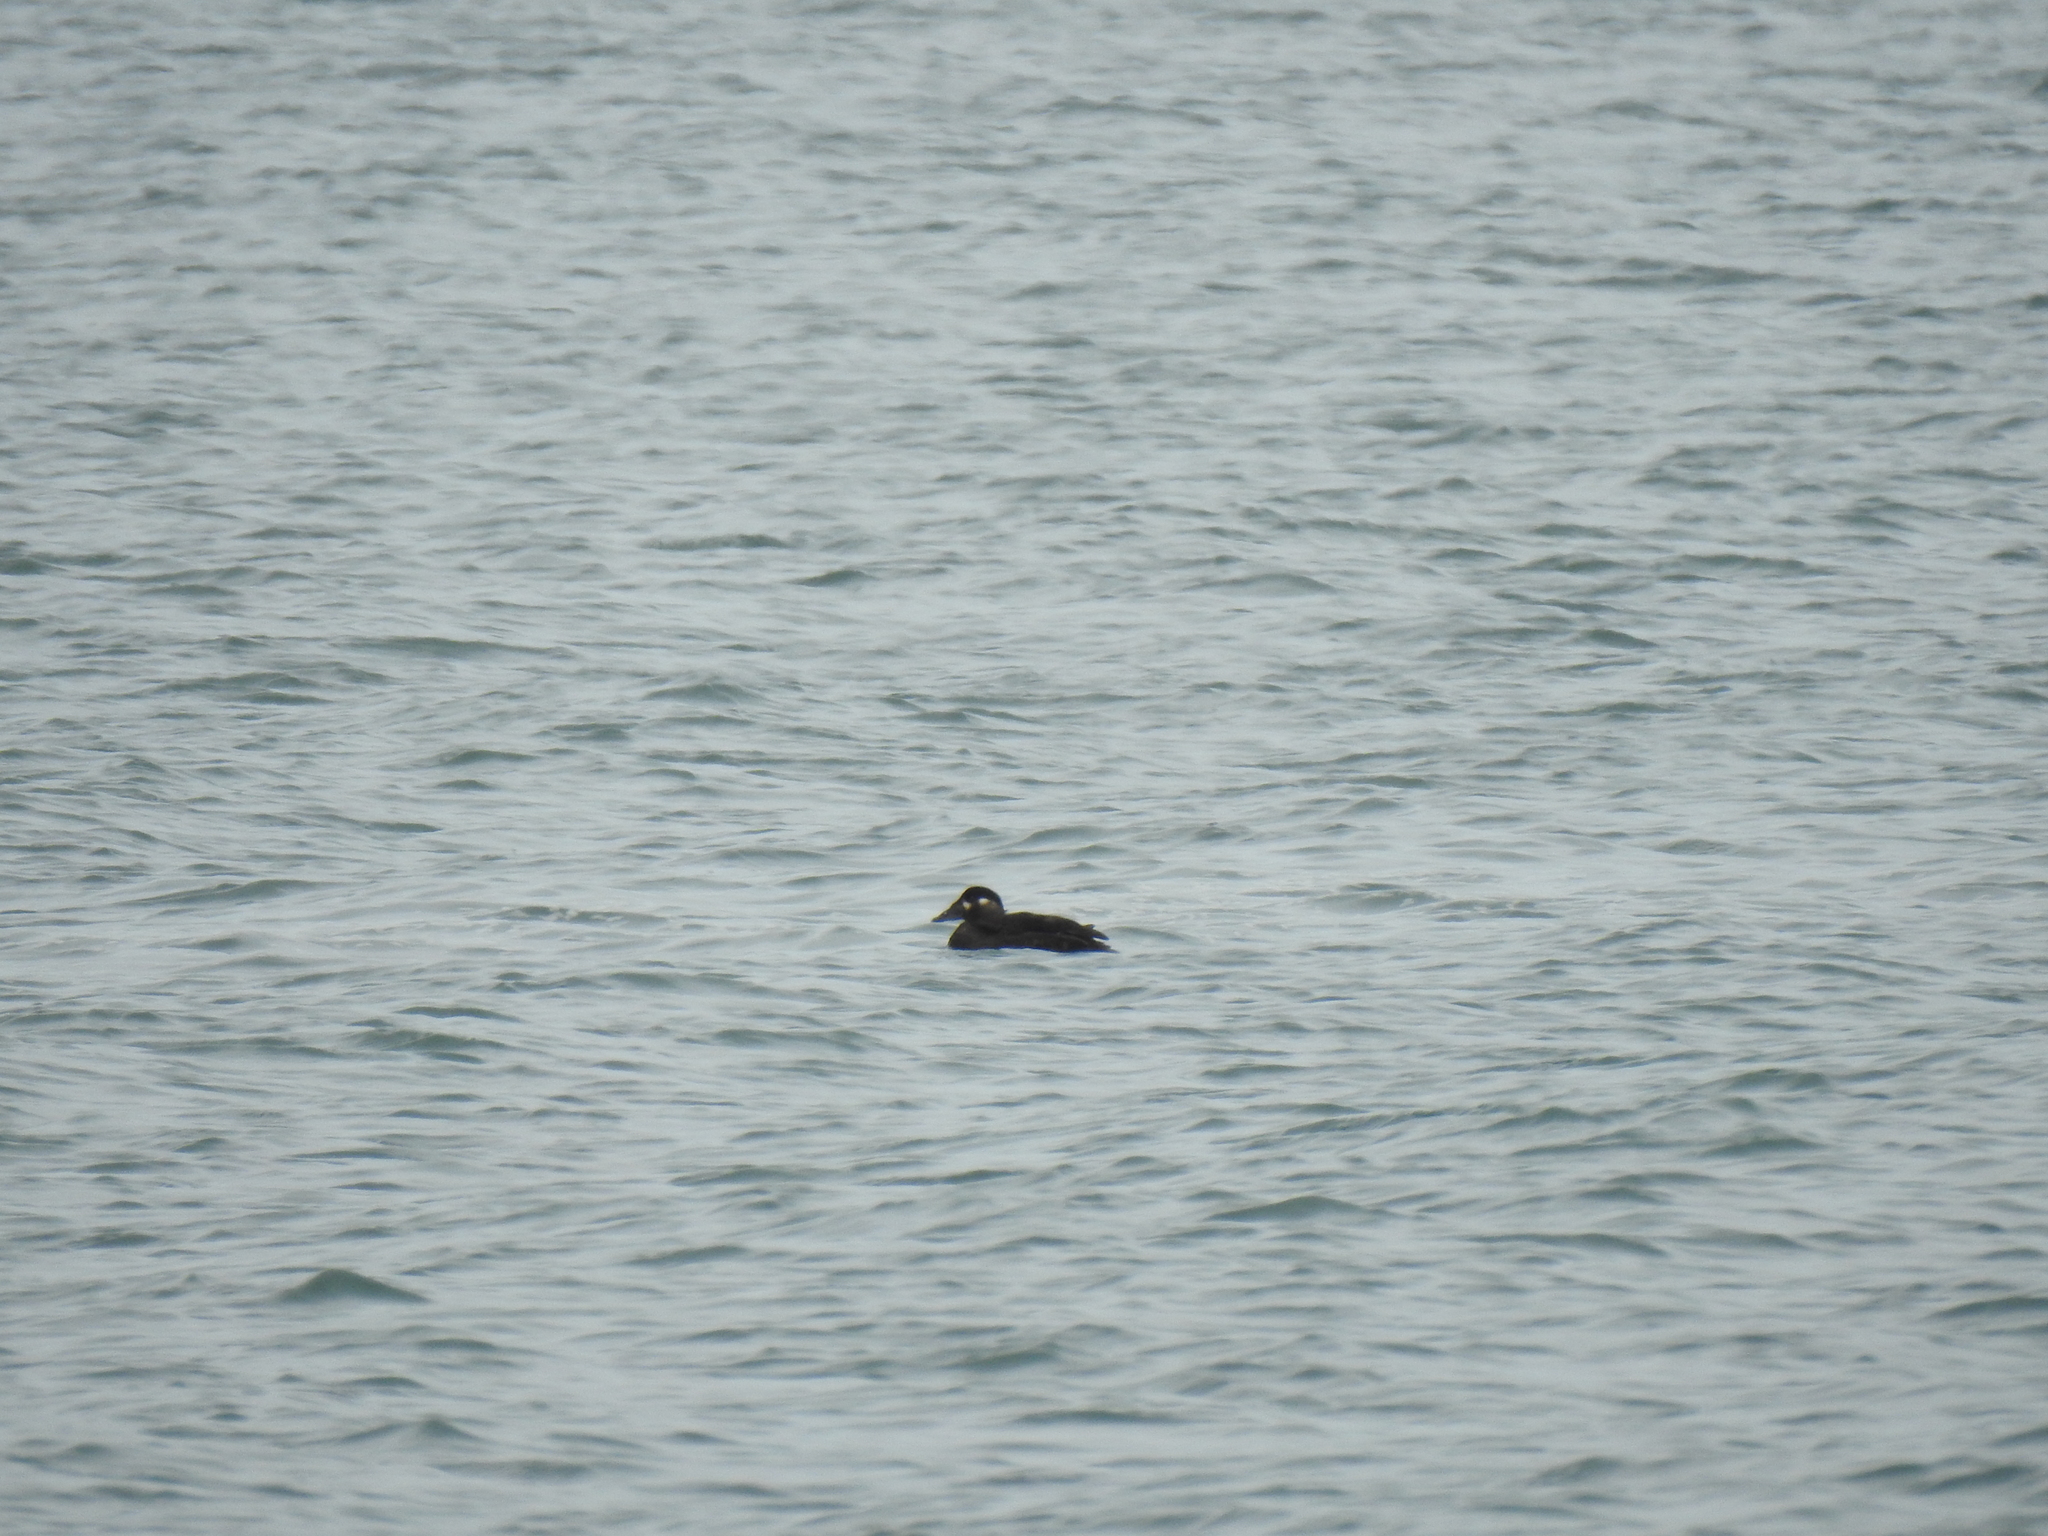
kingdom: Animalia
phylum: Chordata
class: Aves
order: Anseriformes
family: Anatidae
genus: Melanitta
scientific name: Melanitta perspicillata
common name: Surf scoter
